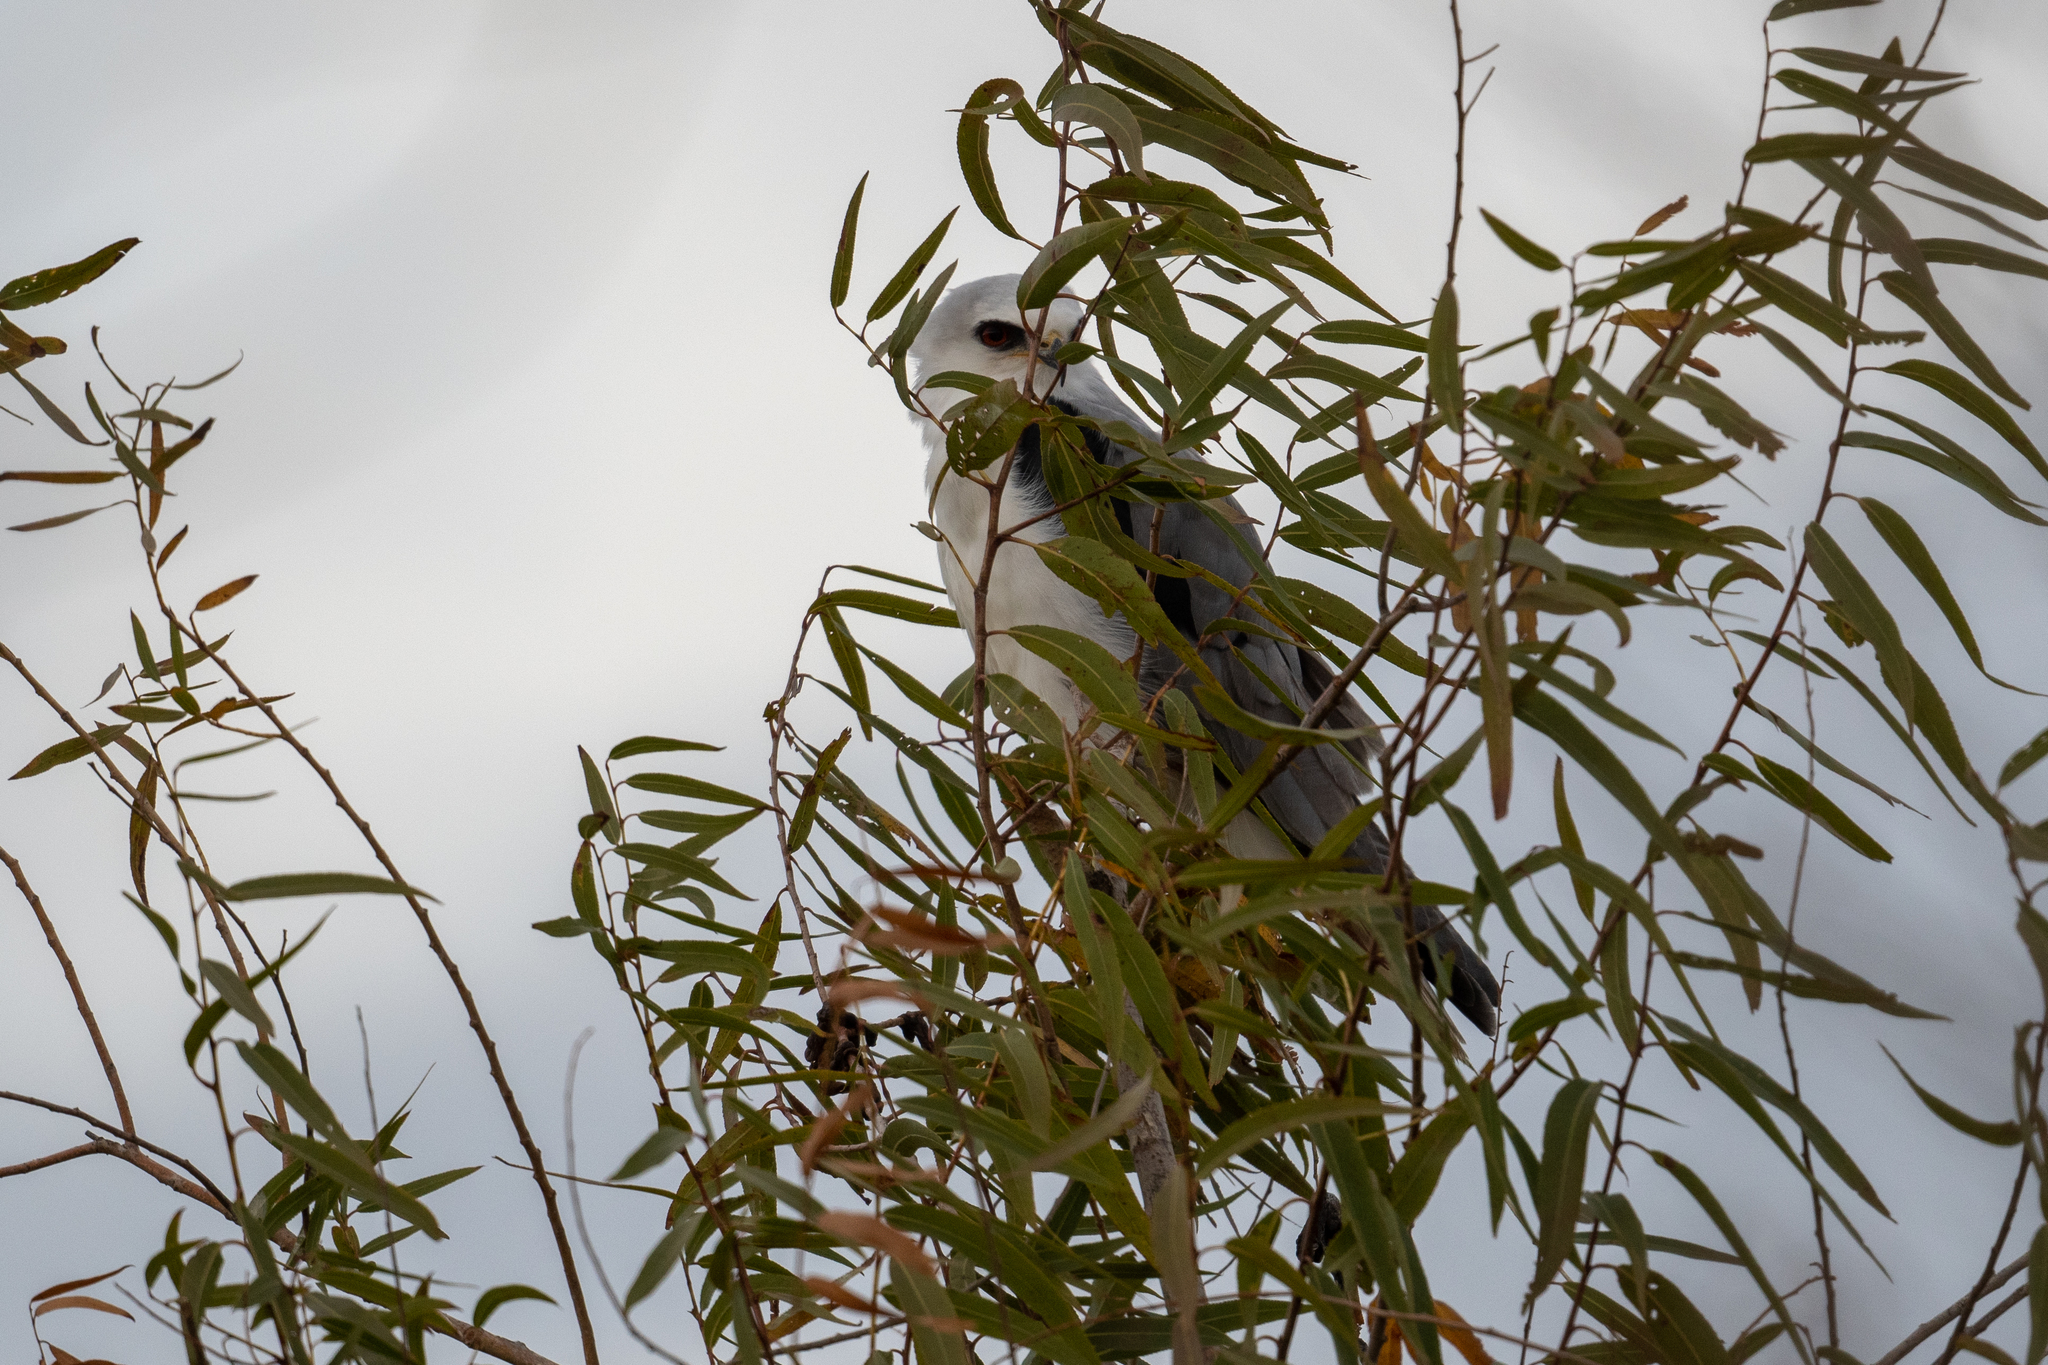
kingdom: Animalia
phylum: Chordata
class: Aves
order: Accipitriformes
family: Accipitridae
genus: Elanus
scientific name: Elanus leucurus
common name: White-tailed kite
